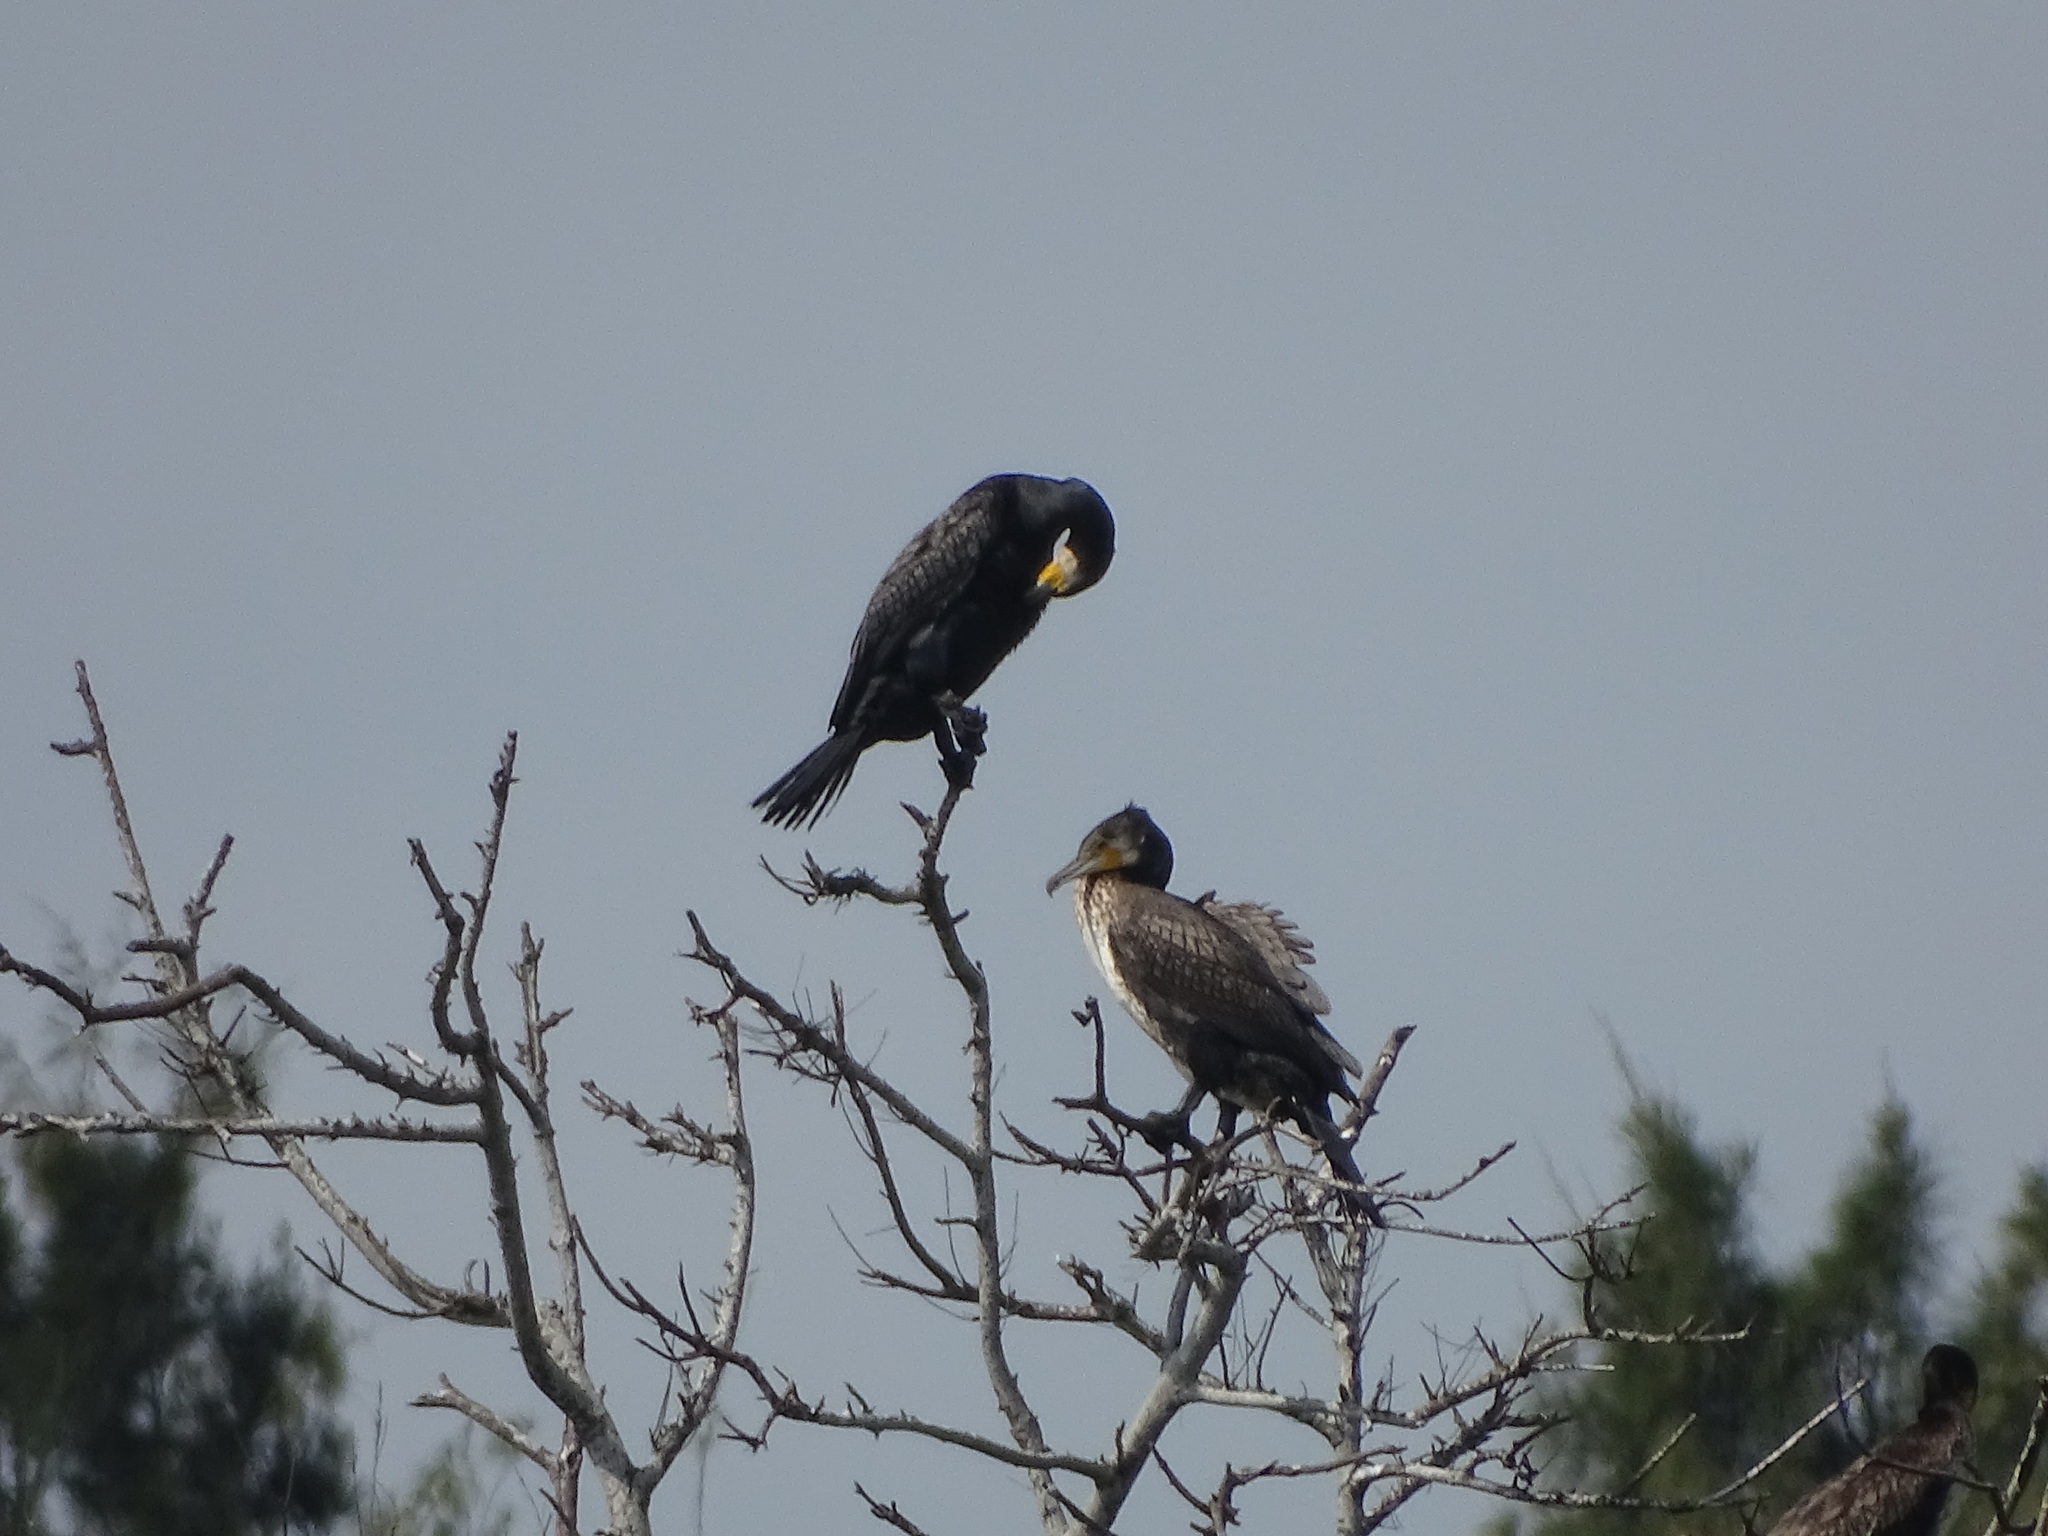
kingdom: Animalia
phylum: Chordata
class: Aves
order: Suliformes
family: Phalacrocoracidae
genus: Phalacrocorax
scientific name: Phalacrocorax carbo
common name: Great cormorant
